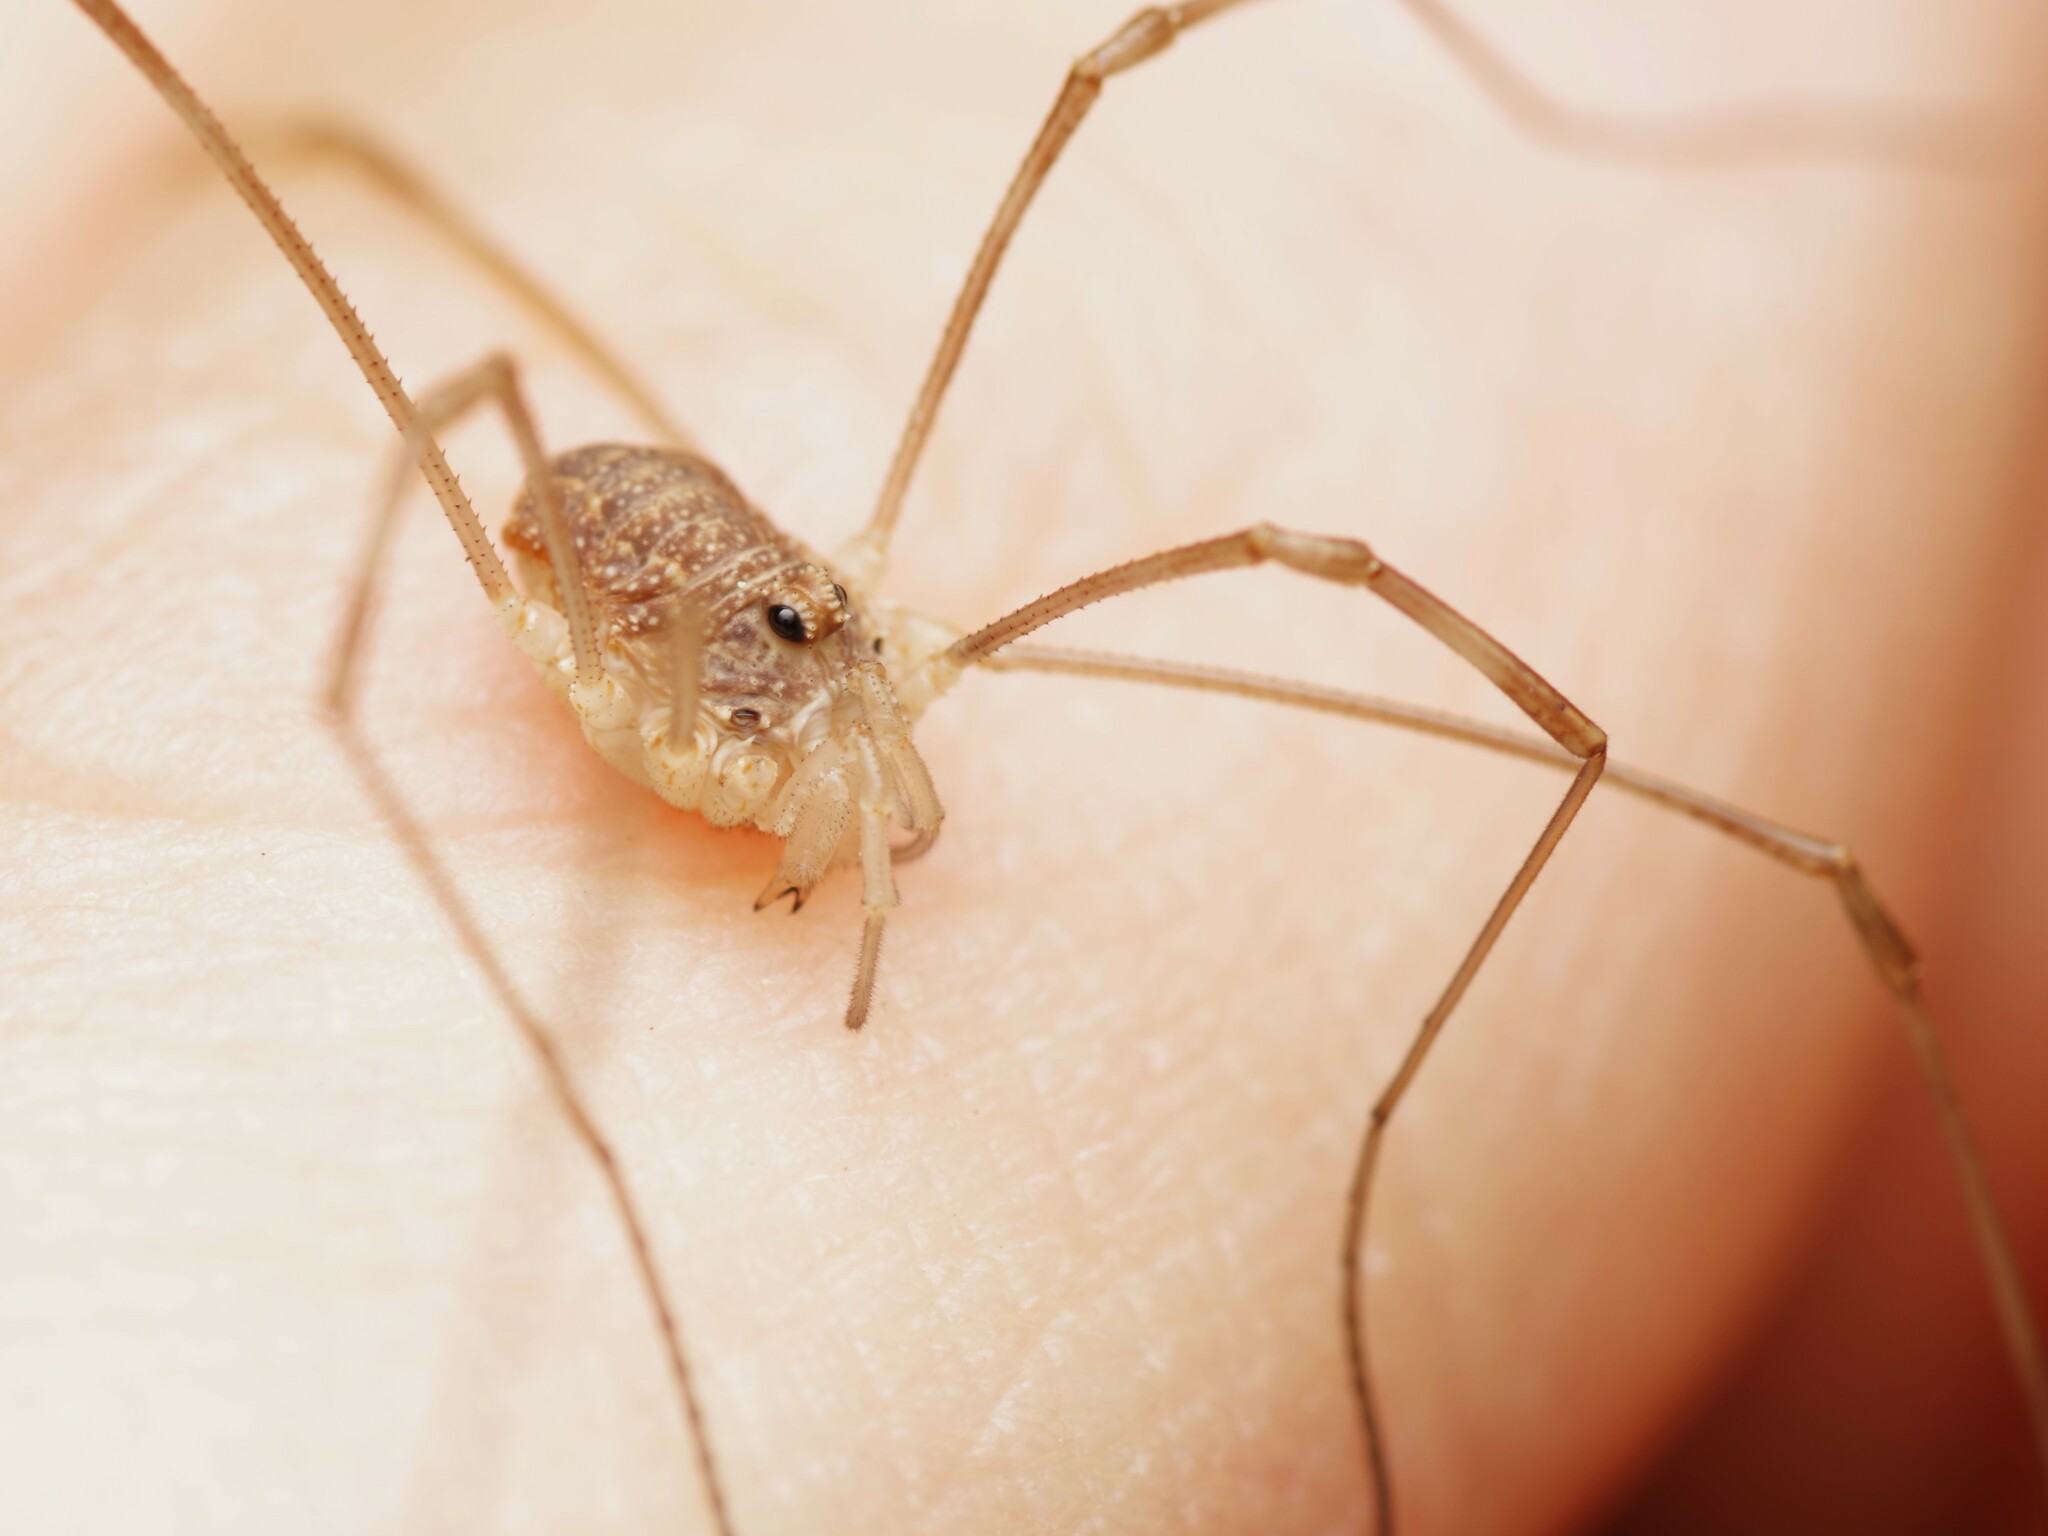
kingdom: Animalia
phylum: Arthropoda
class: Arachnida
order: Opiliones
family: Phalangiidae
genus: Rilaena
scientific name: Rilaena triangularis
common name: Spring harvestman
